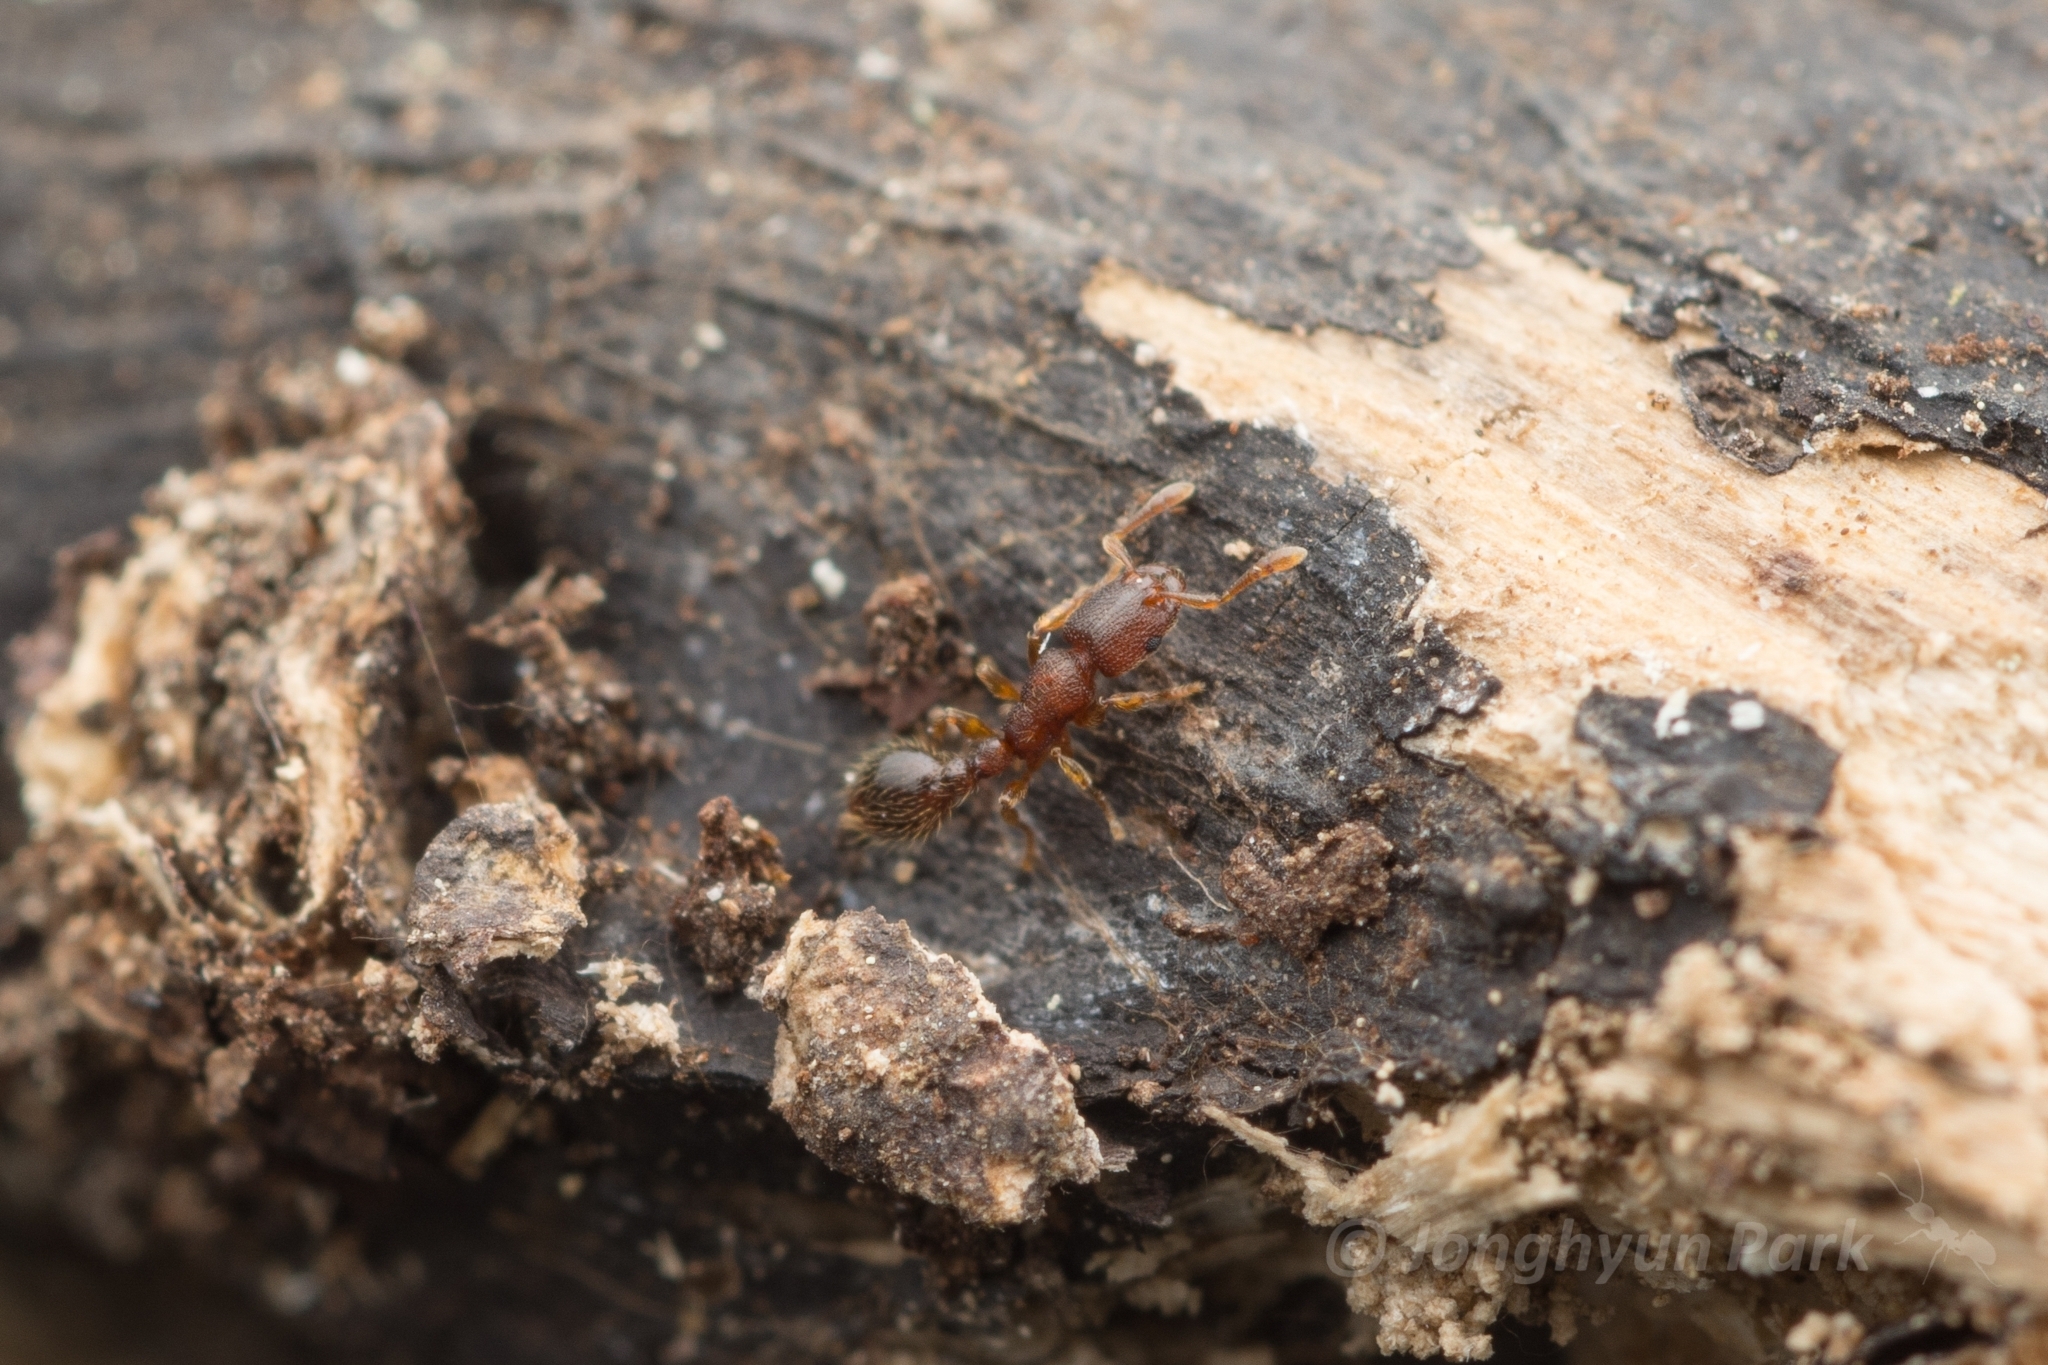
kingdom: Animalia
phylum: Arthropoda
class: Insecta
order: Hymenoptera
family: Formicidae
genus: Vollenhovia
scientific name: Vollenhovia emeryi
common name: Ant
